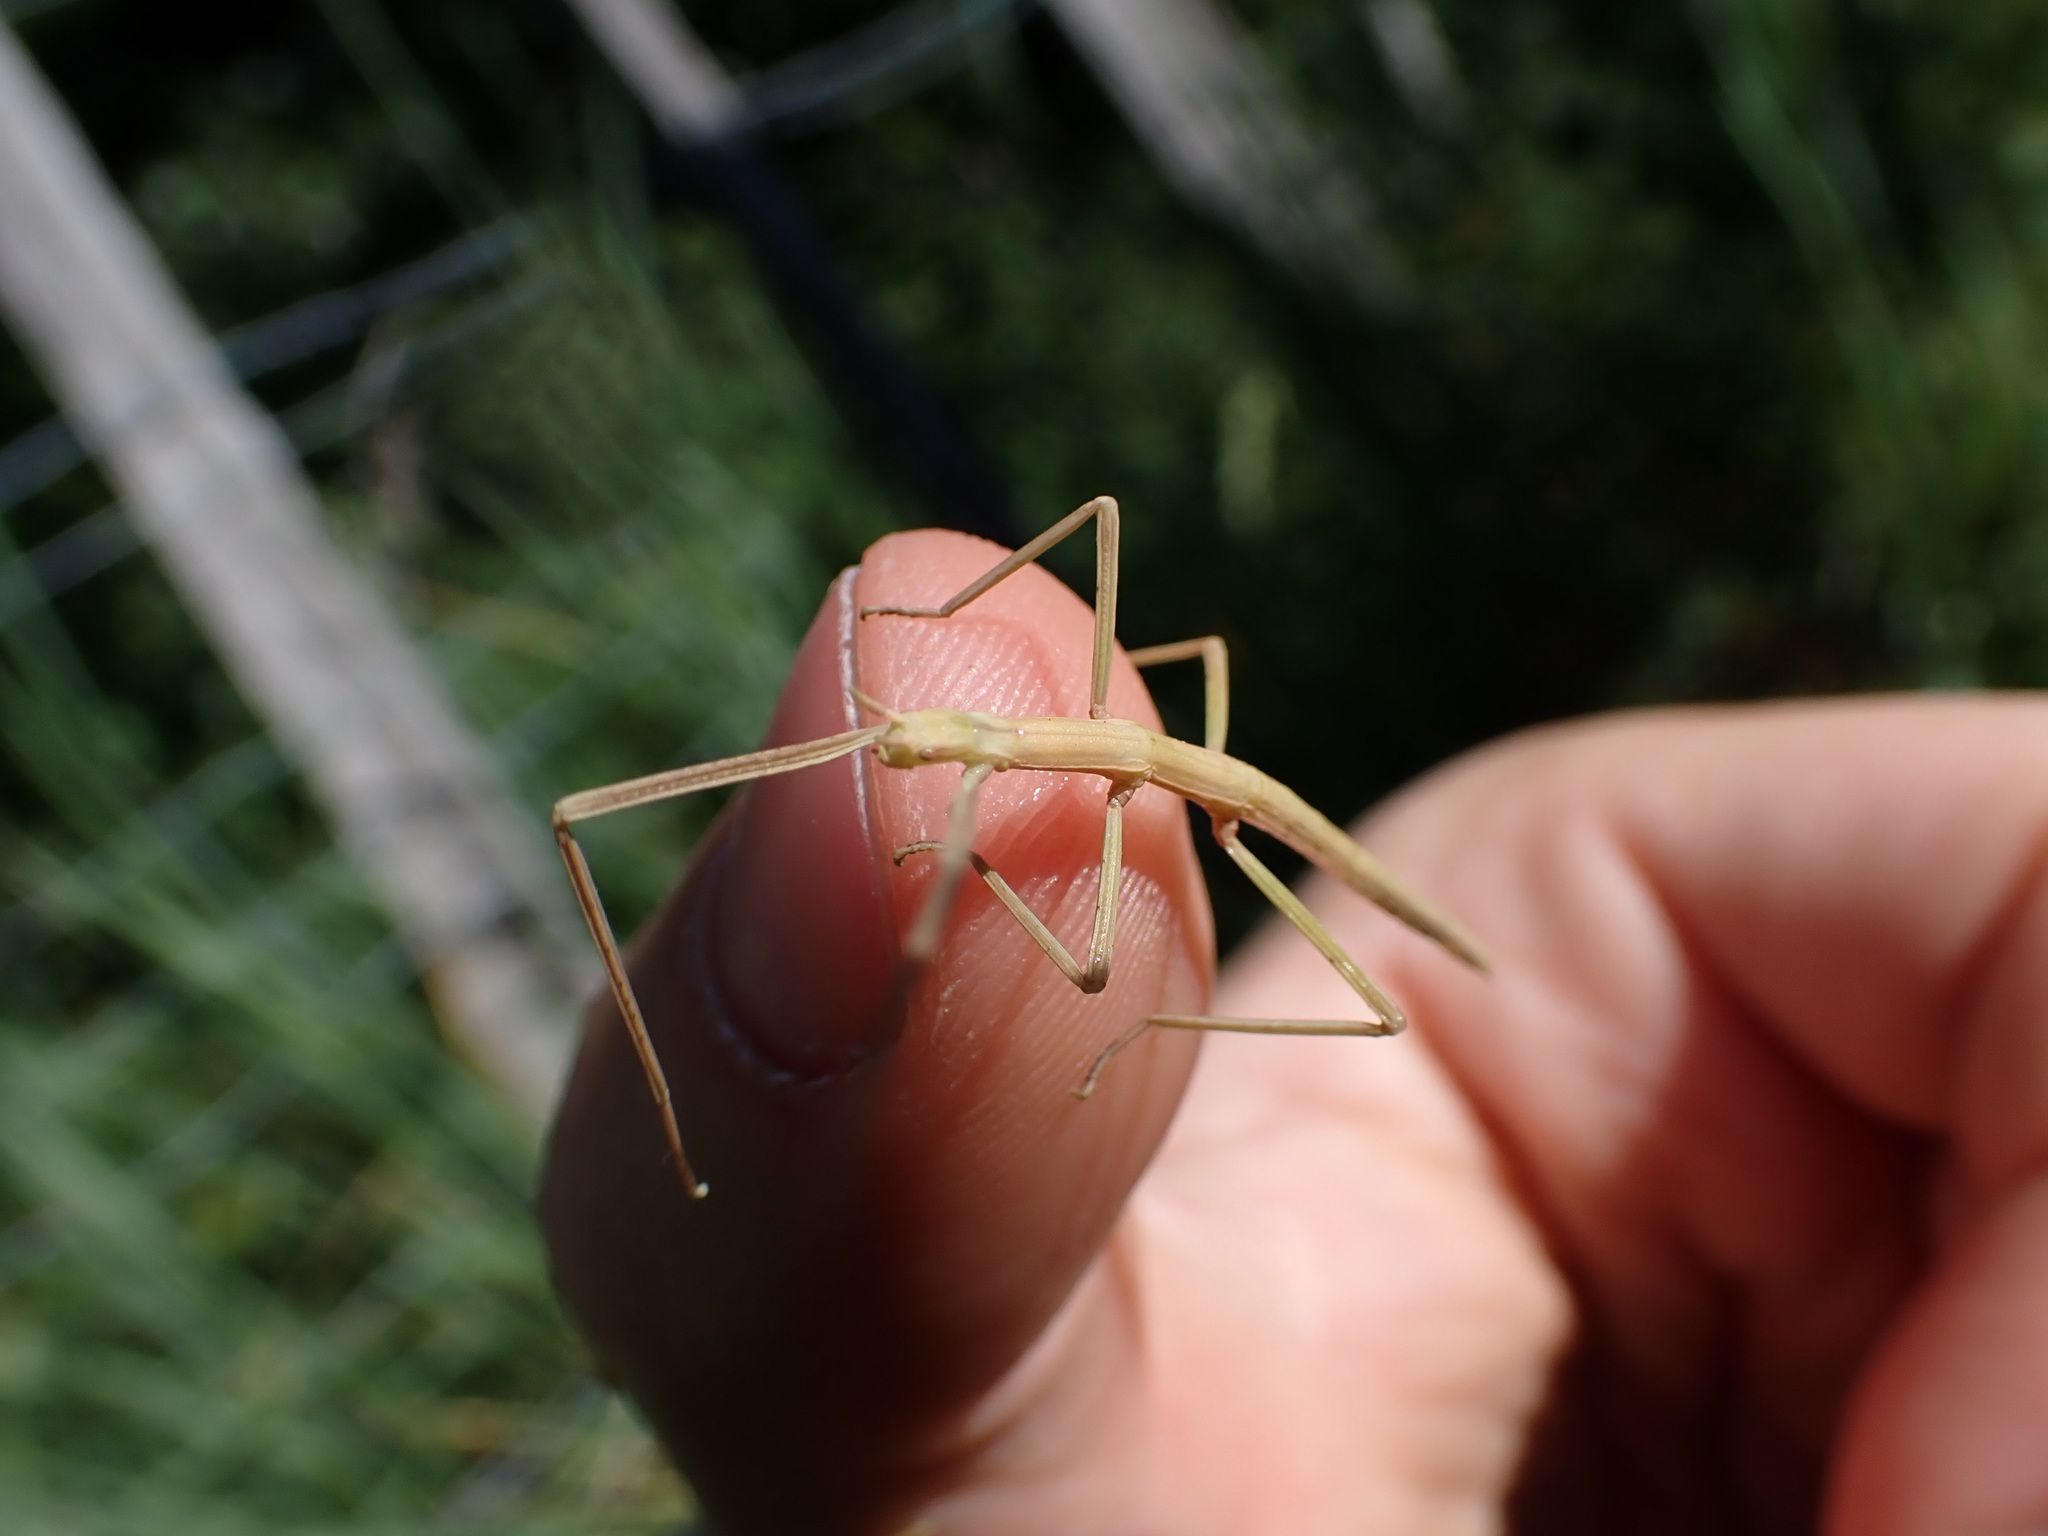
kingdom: Animalia
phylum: Arthropoda
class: Insecta
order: Phasmida
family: Bacillidae
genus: Clonopsis
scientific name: Clonopsis gallica
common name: French stick insect
